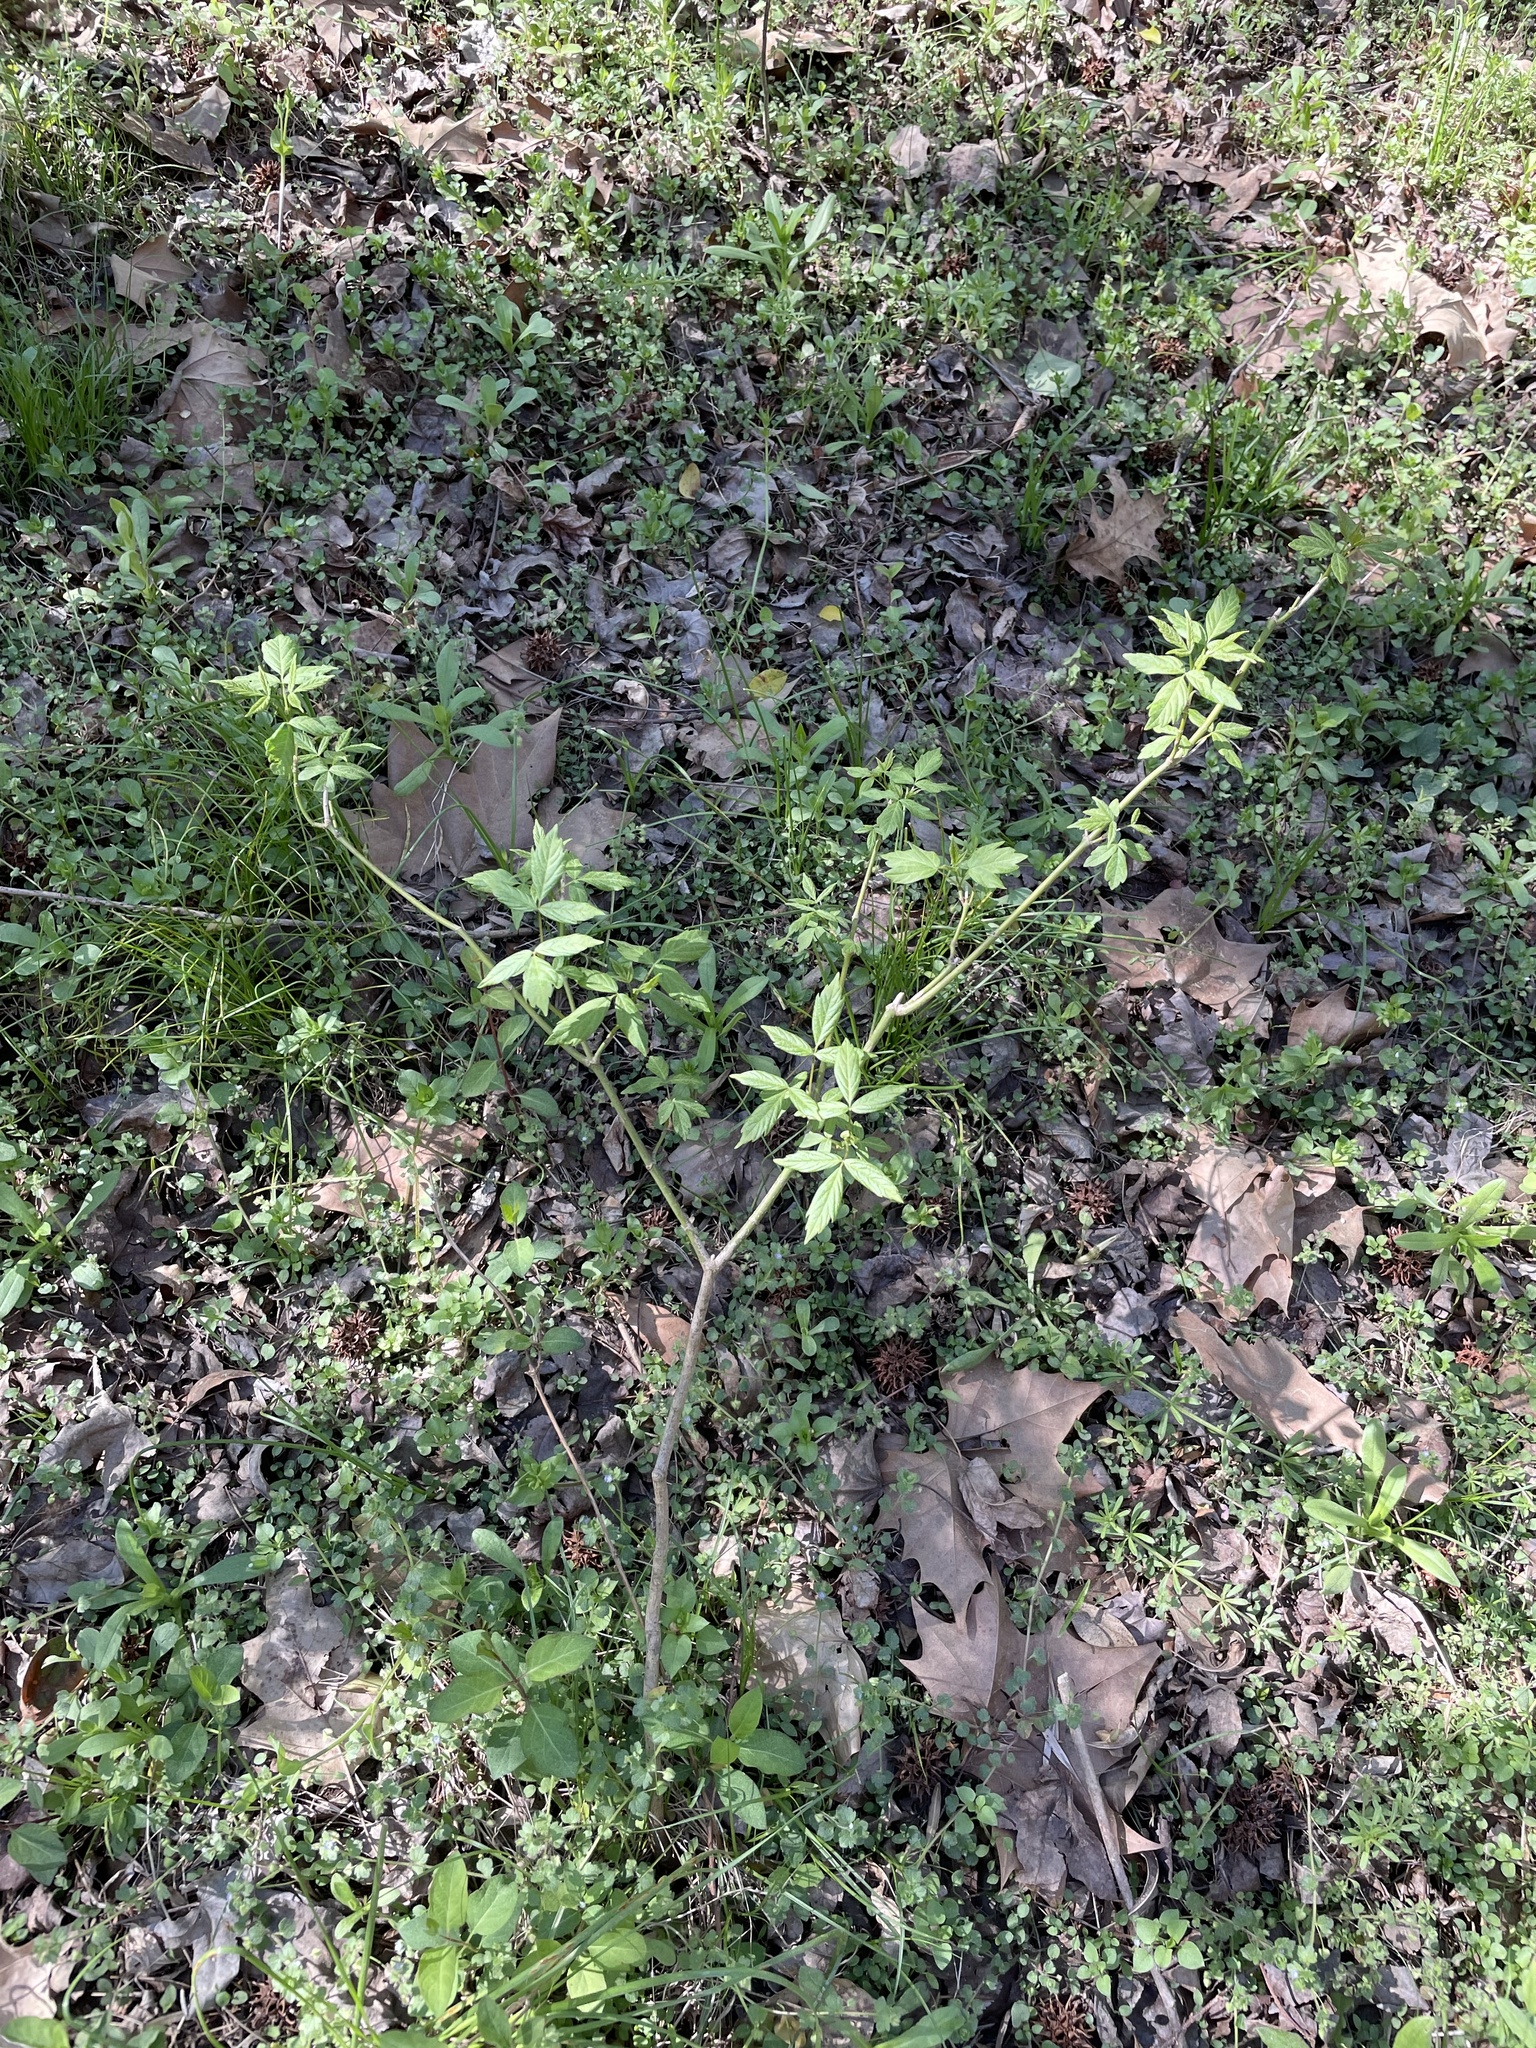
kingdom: Plantae
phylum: Tracheophyta
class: Magnoliopsida
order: Sapindales
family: Sapindaceae
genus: Acer
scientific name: Acer negundo
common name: Ashleaf maple
